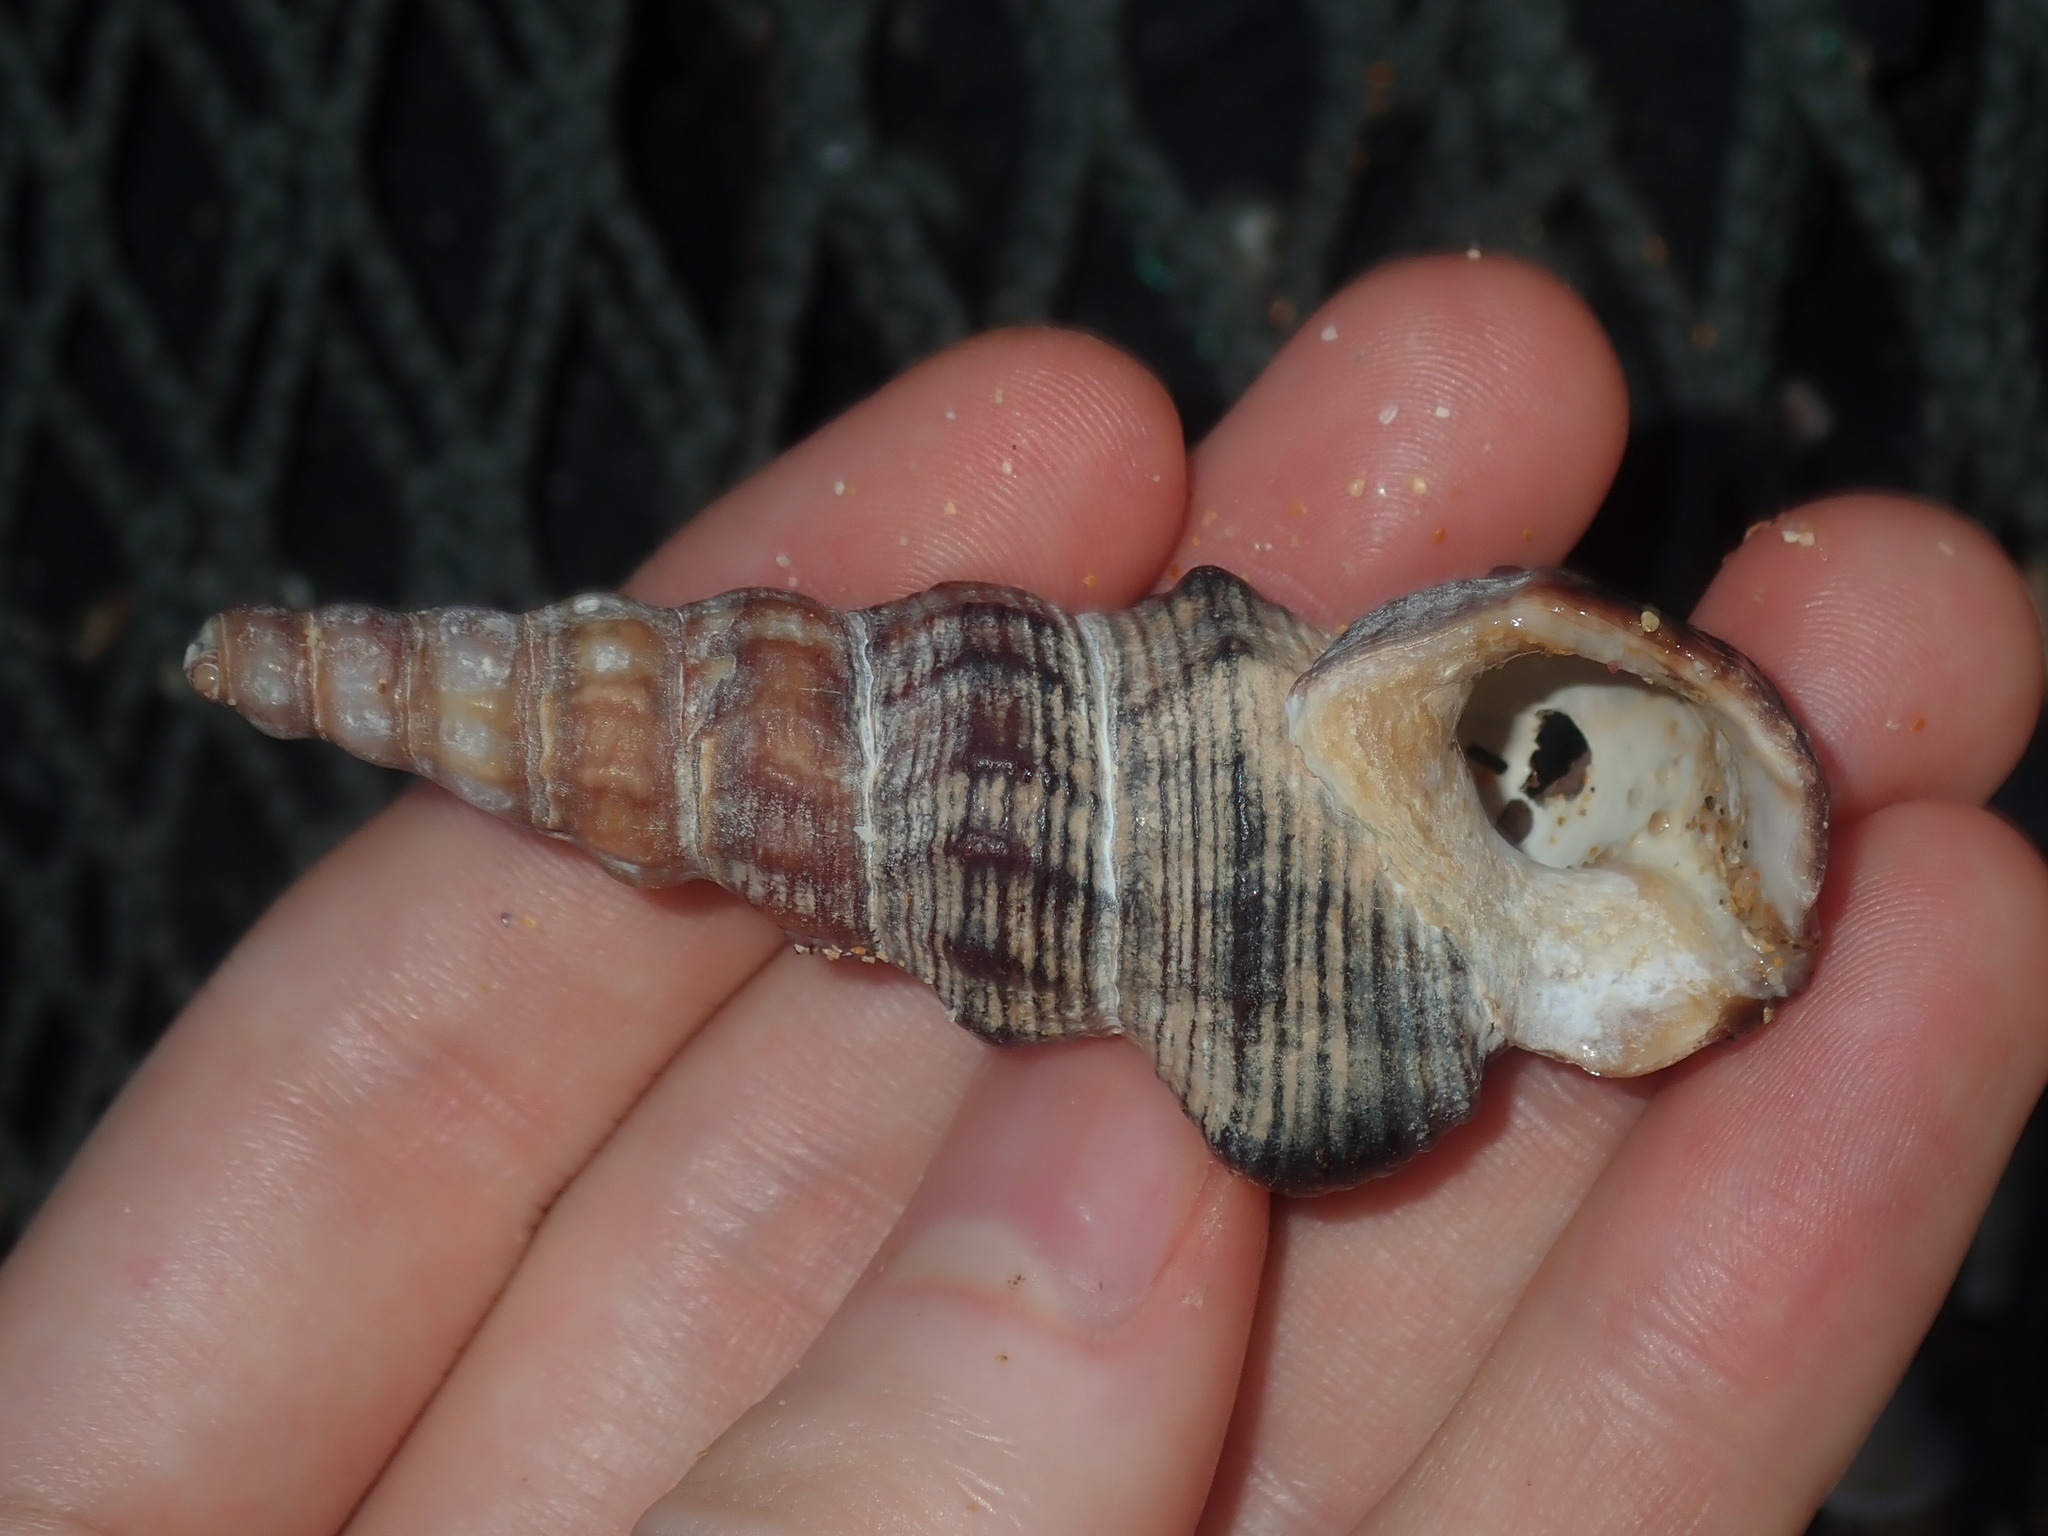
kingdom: Animalia
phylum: Mollusca
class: Gastropoda
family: Batillariidae
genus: Pyrazus
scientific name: Pyrazus ebeninus
